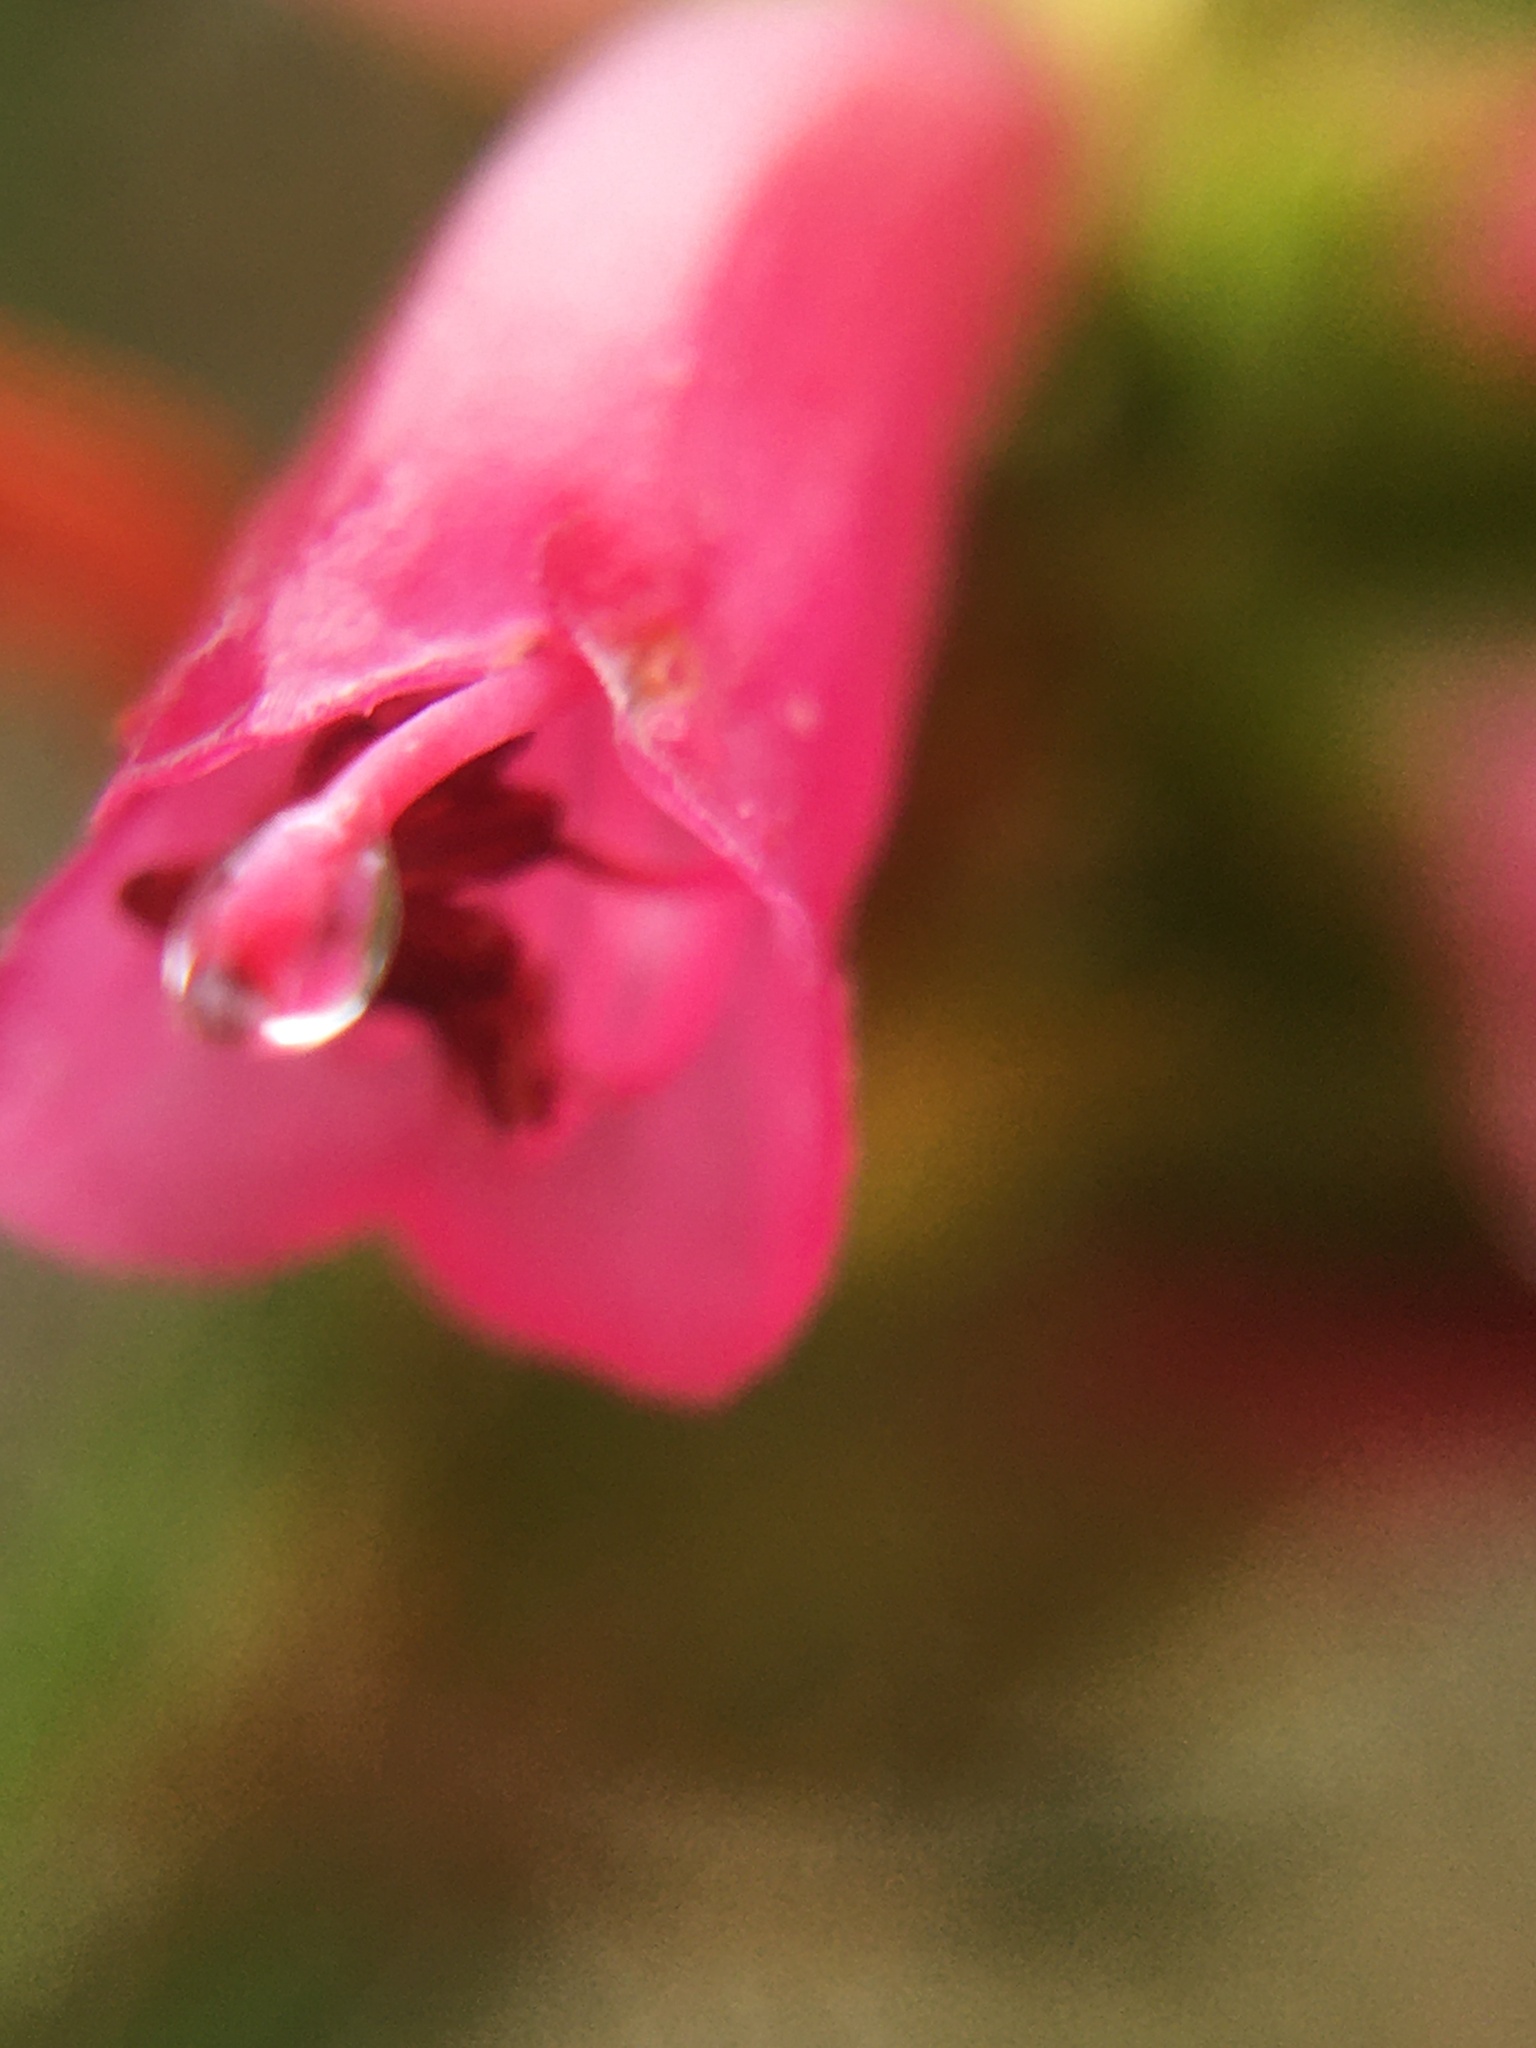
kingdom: Plantae
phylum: Tracheophyta
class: Magnoliopsida
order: Ericales
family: Ericaceae
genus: Erica
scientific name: Erica abietina
